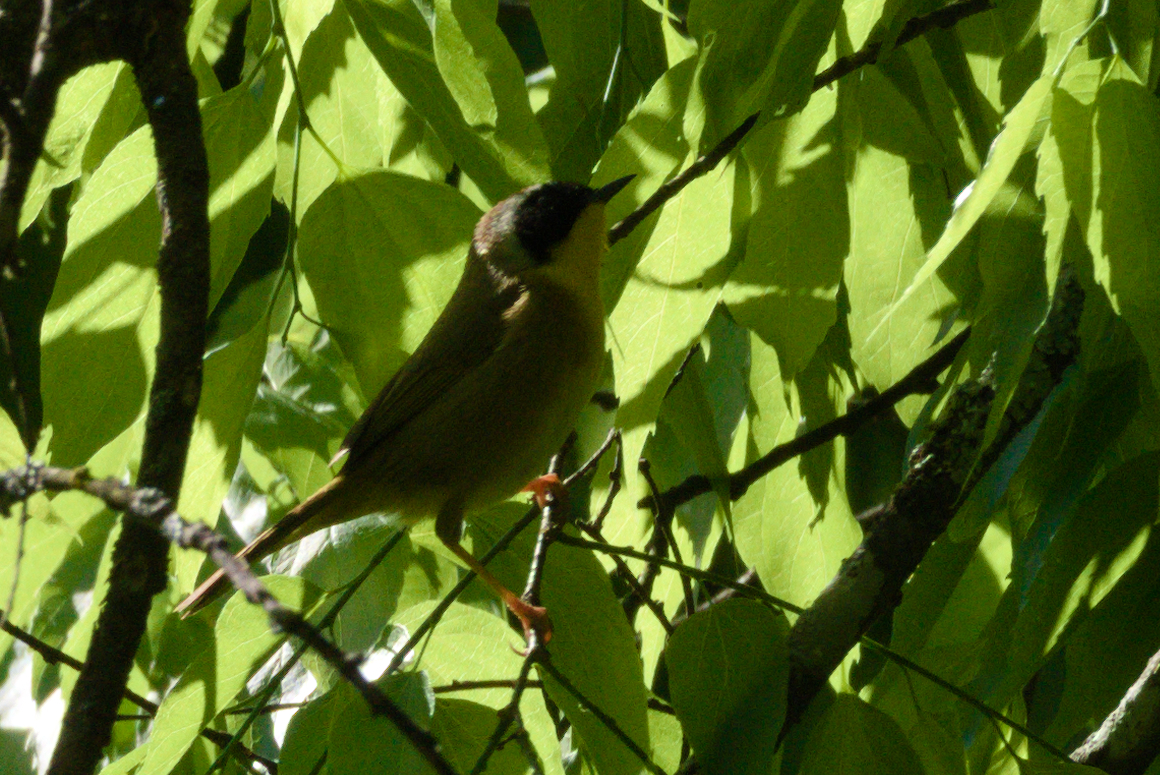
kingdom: Animalia
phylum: Chordata
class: Aves
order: Passeriformes
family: Parulidae
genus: Geothlypis
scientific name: Geothlypis trichas
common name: Common yellowthroat
